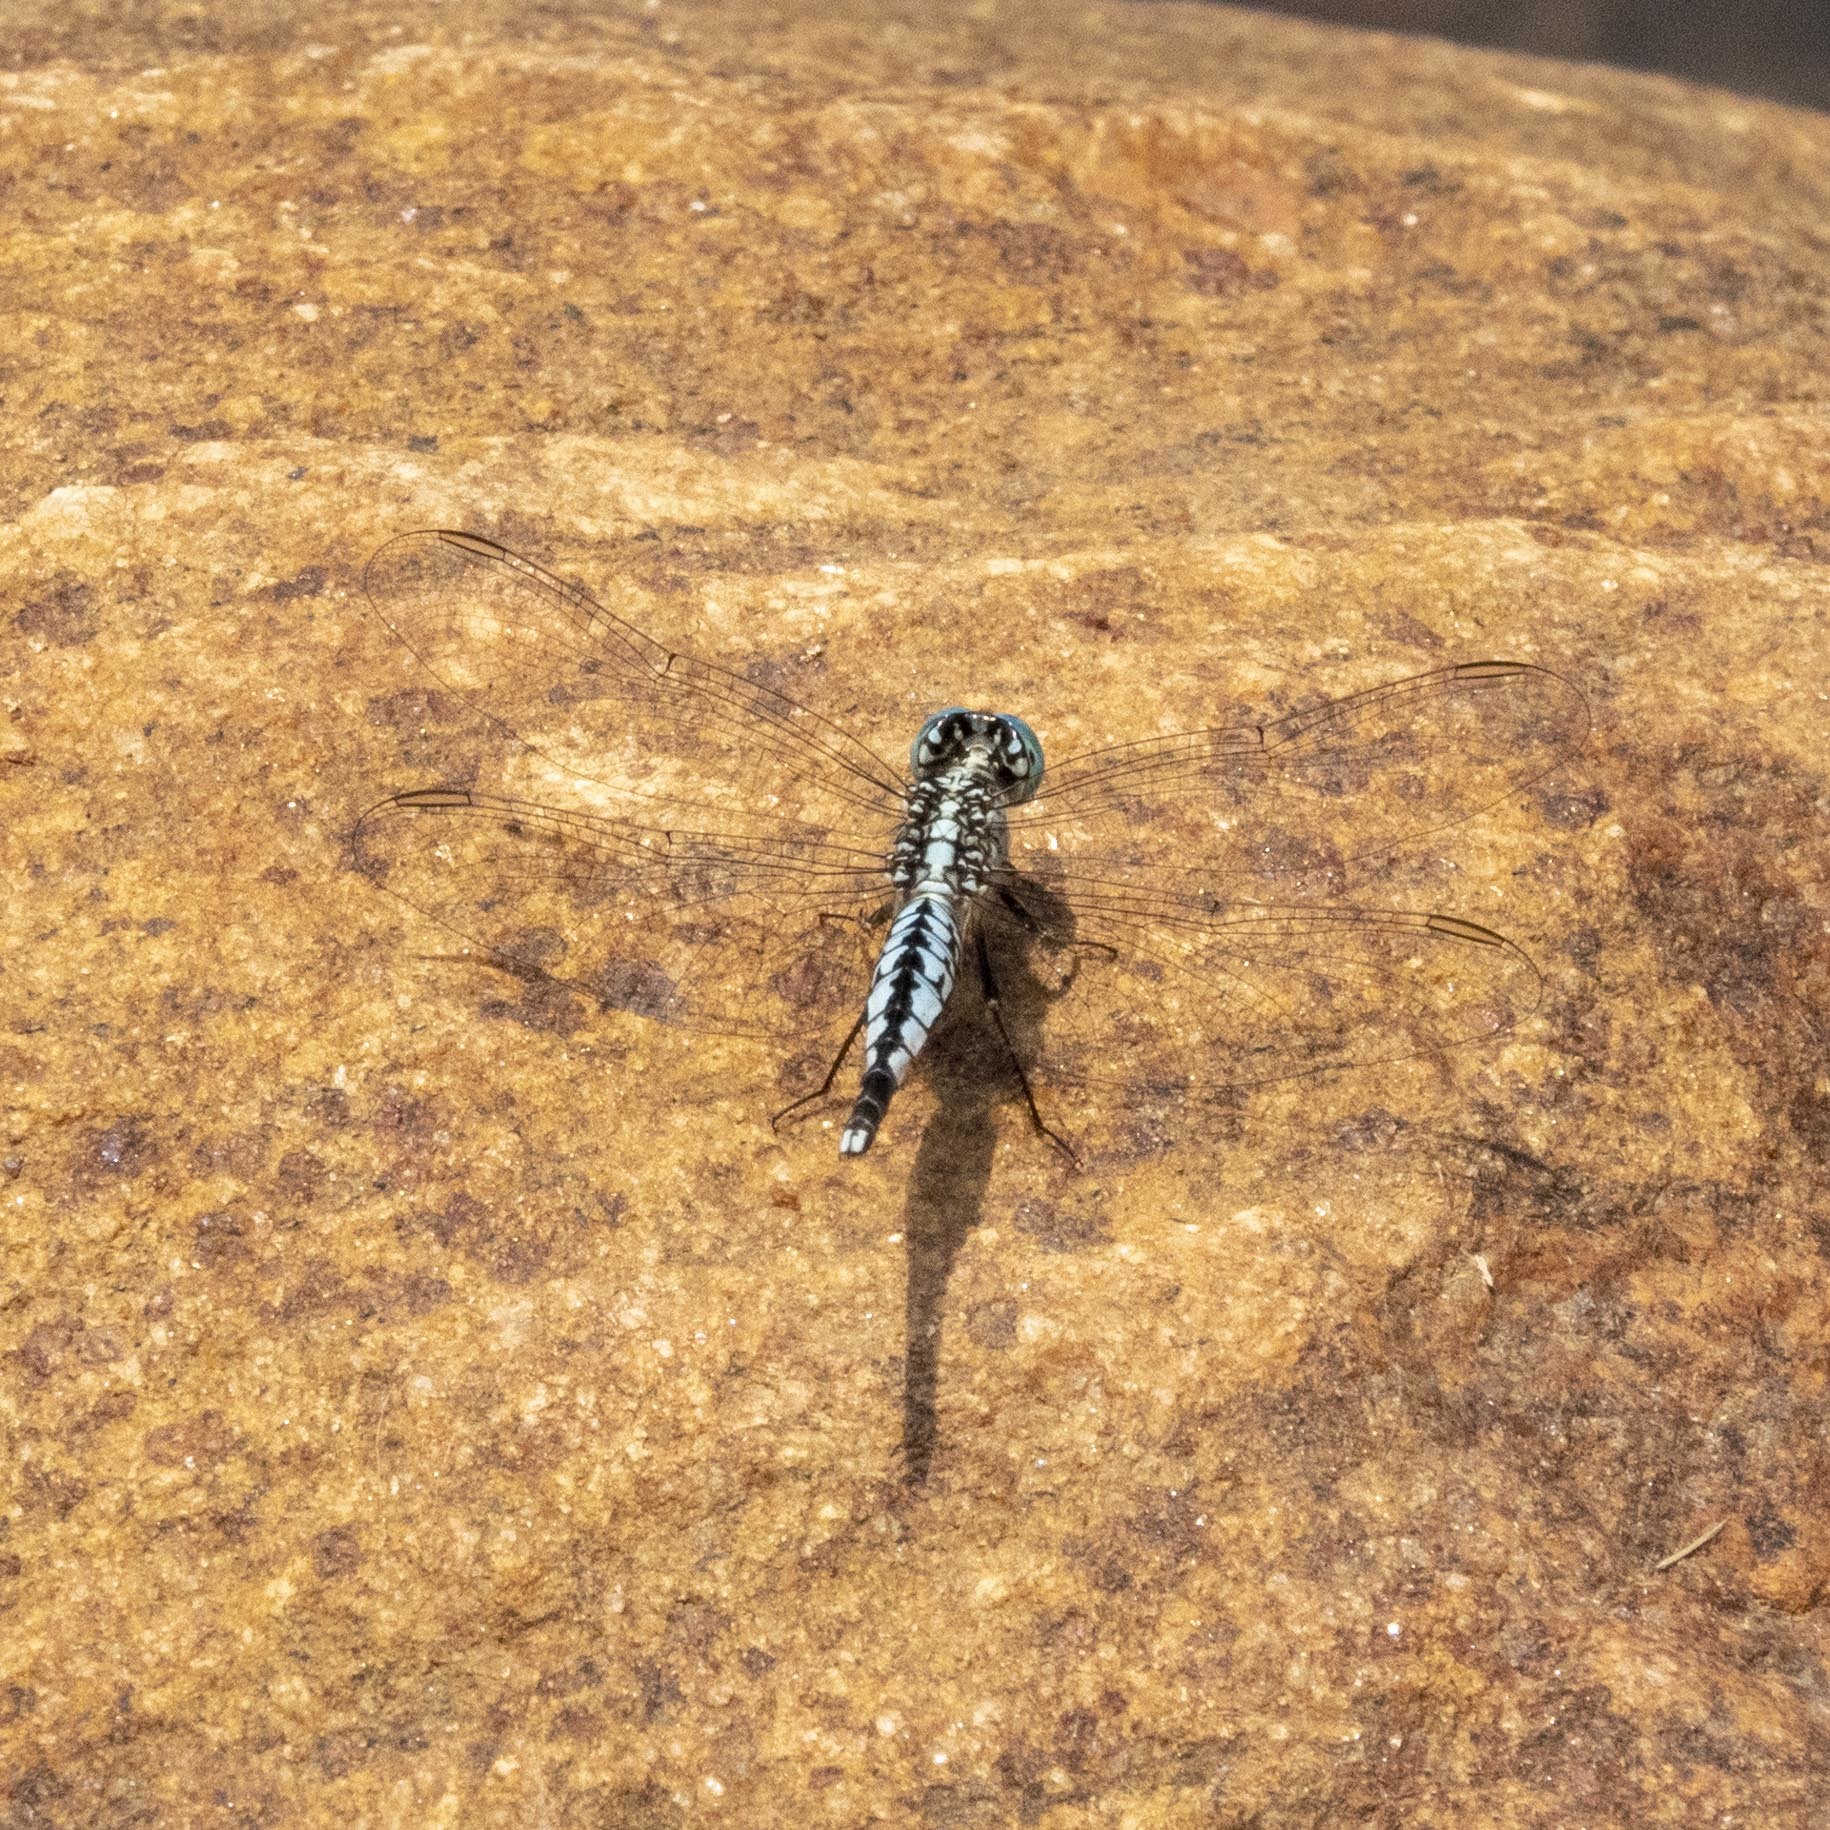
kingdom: Animalia
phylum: Arthropoda
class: Insecta
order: Odonata
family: Libellulidae
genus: Acisoma
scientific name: Acisoma panorpoides
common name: Asian pintail
